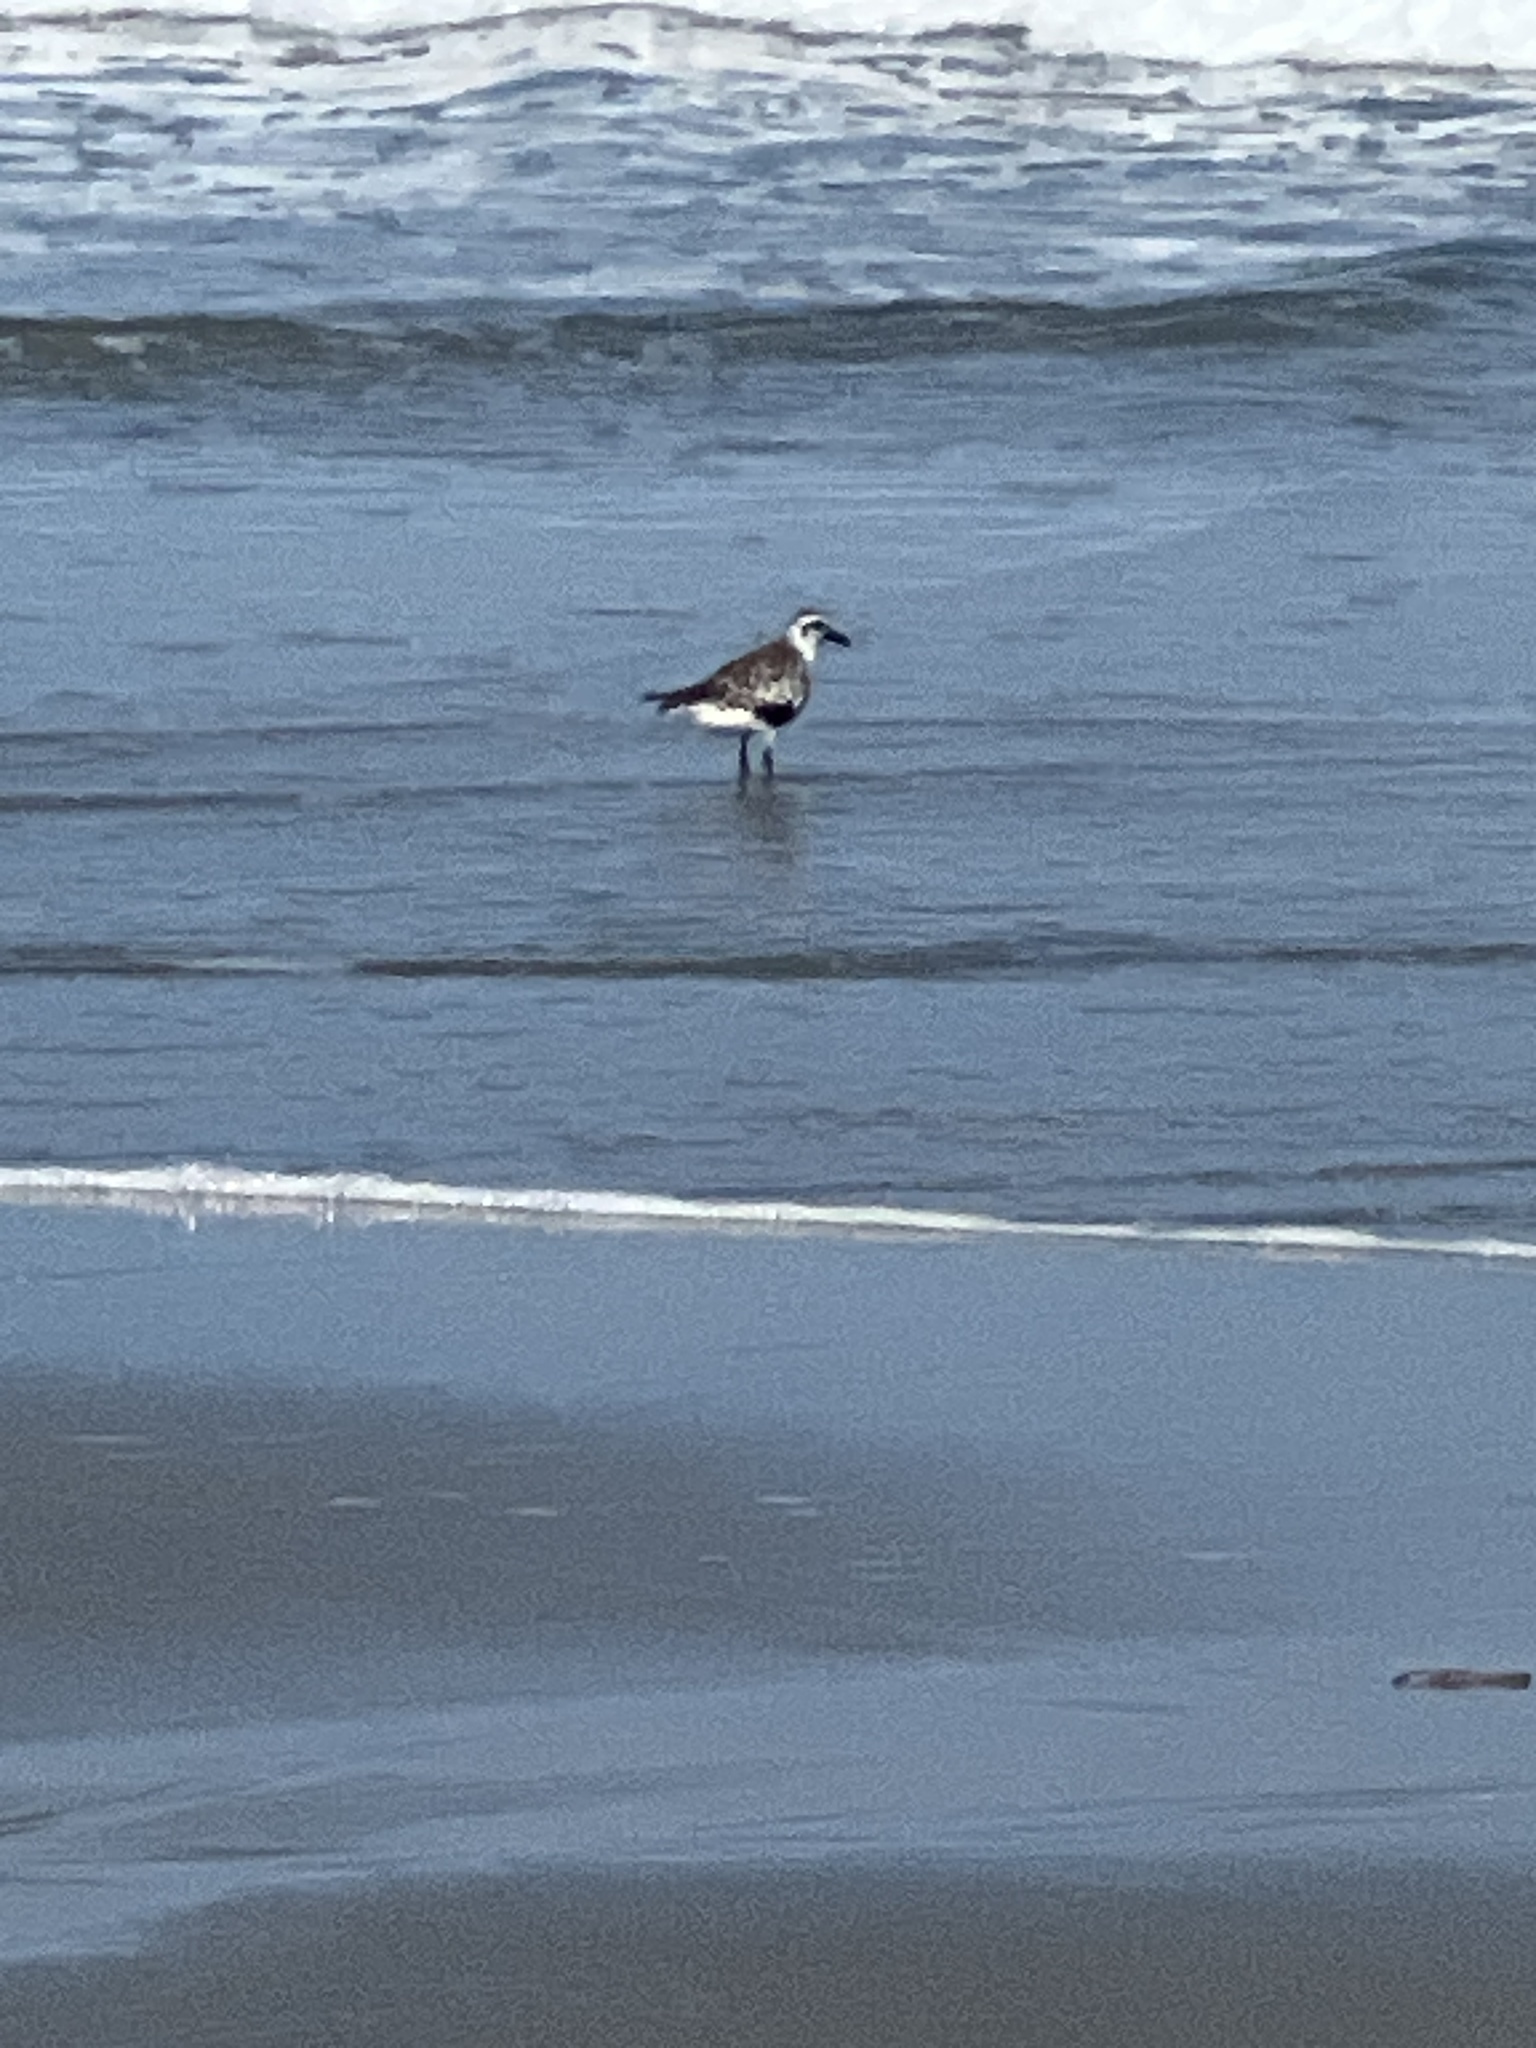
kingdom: Animalia
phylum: Chordata
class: Aves
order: Charadriiformes
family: Charadriidae
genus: Pluvialis
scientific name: Pluvialis squatarola
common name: Grey plover
